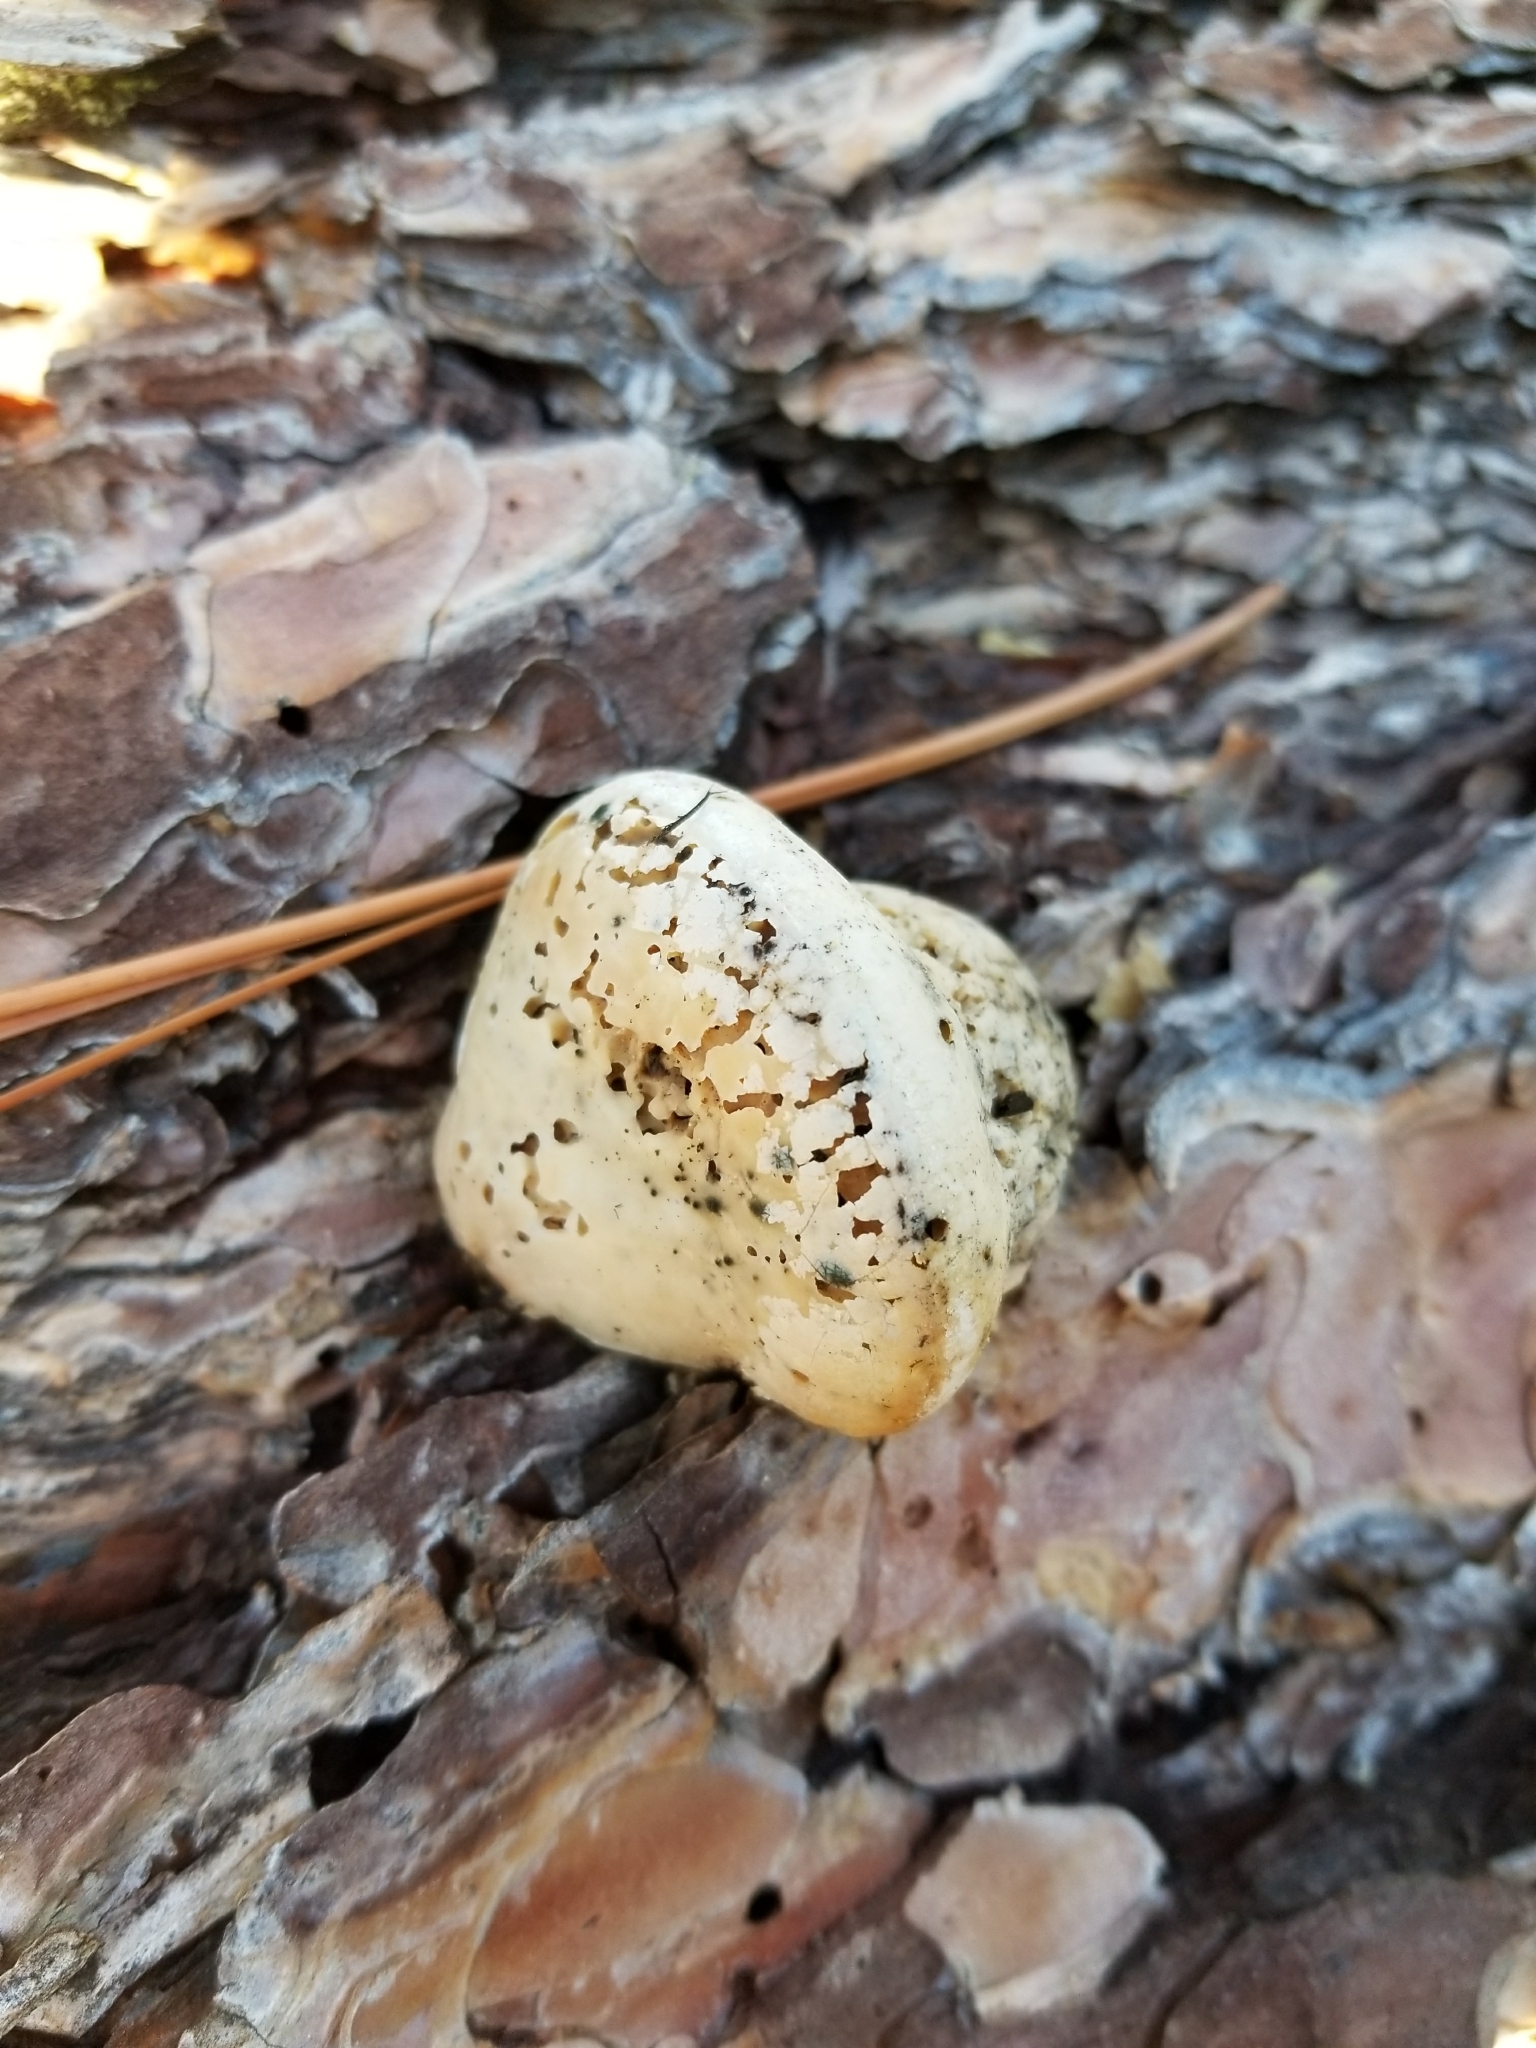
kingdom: Fungi
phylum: Basidiomycota
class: Agaricomycetes
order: Polyporales
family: Polyporaceae
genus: Cryptoporus
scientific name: Cryptoporus volvatus
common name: Veiled polypore
